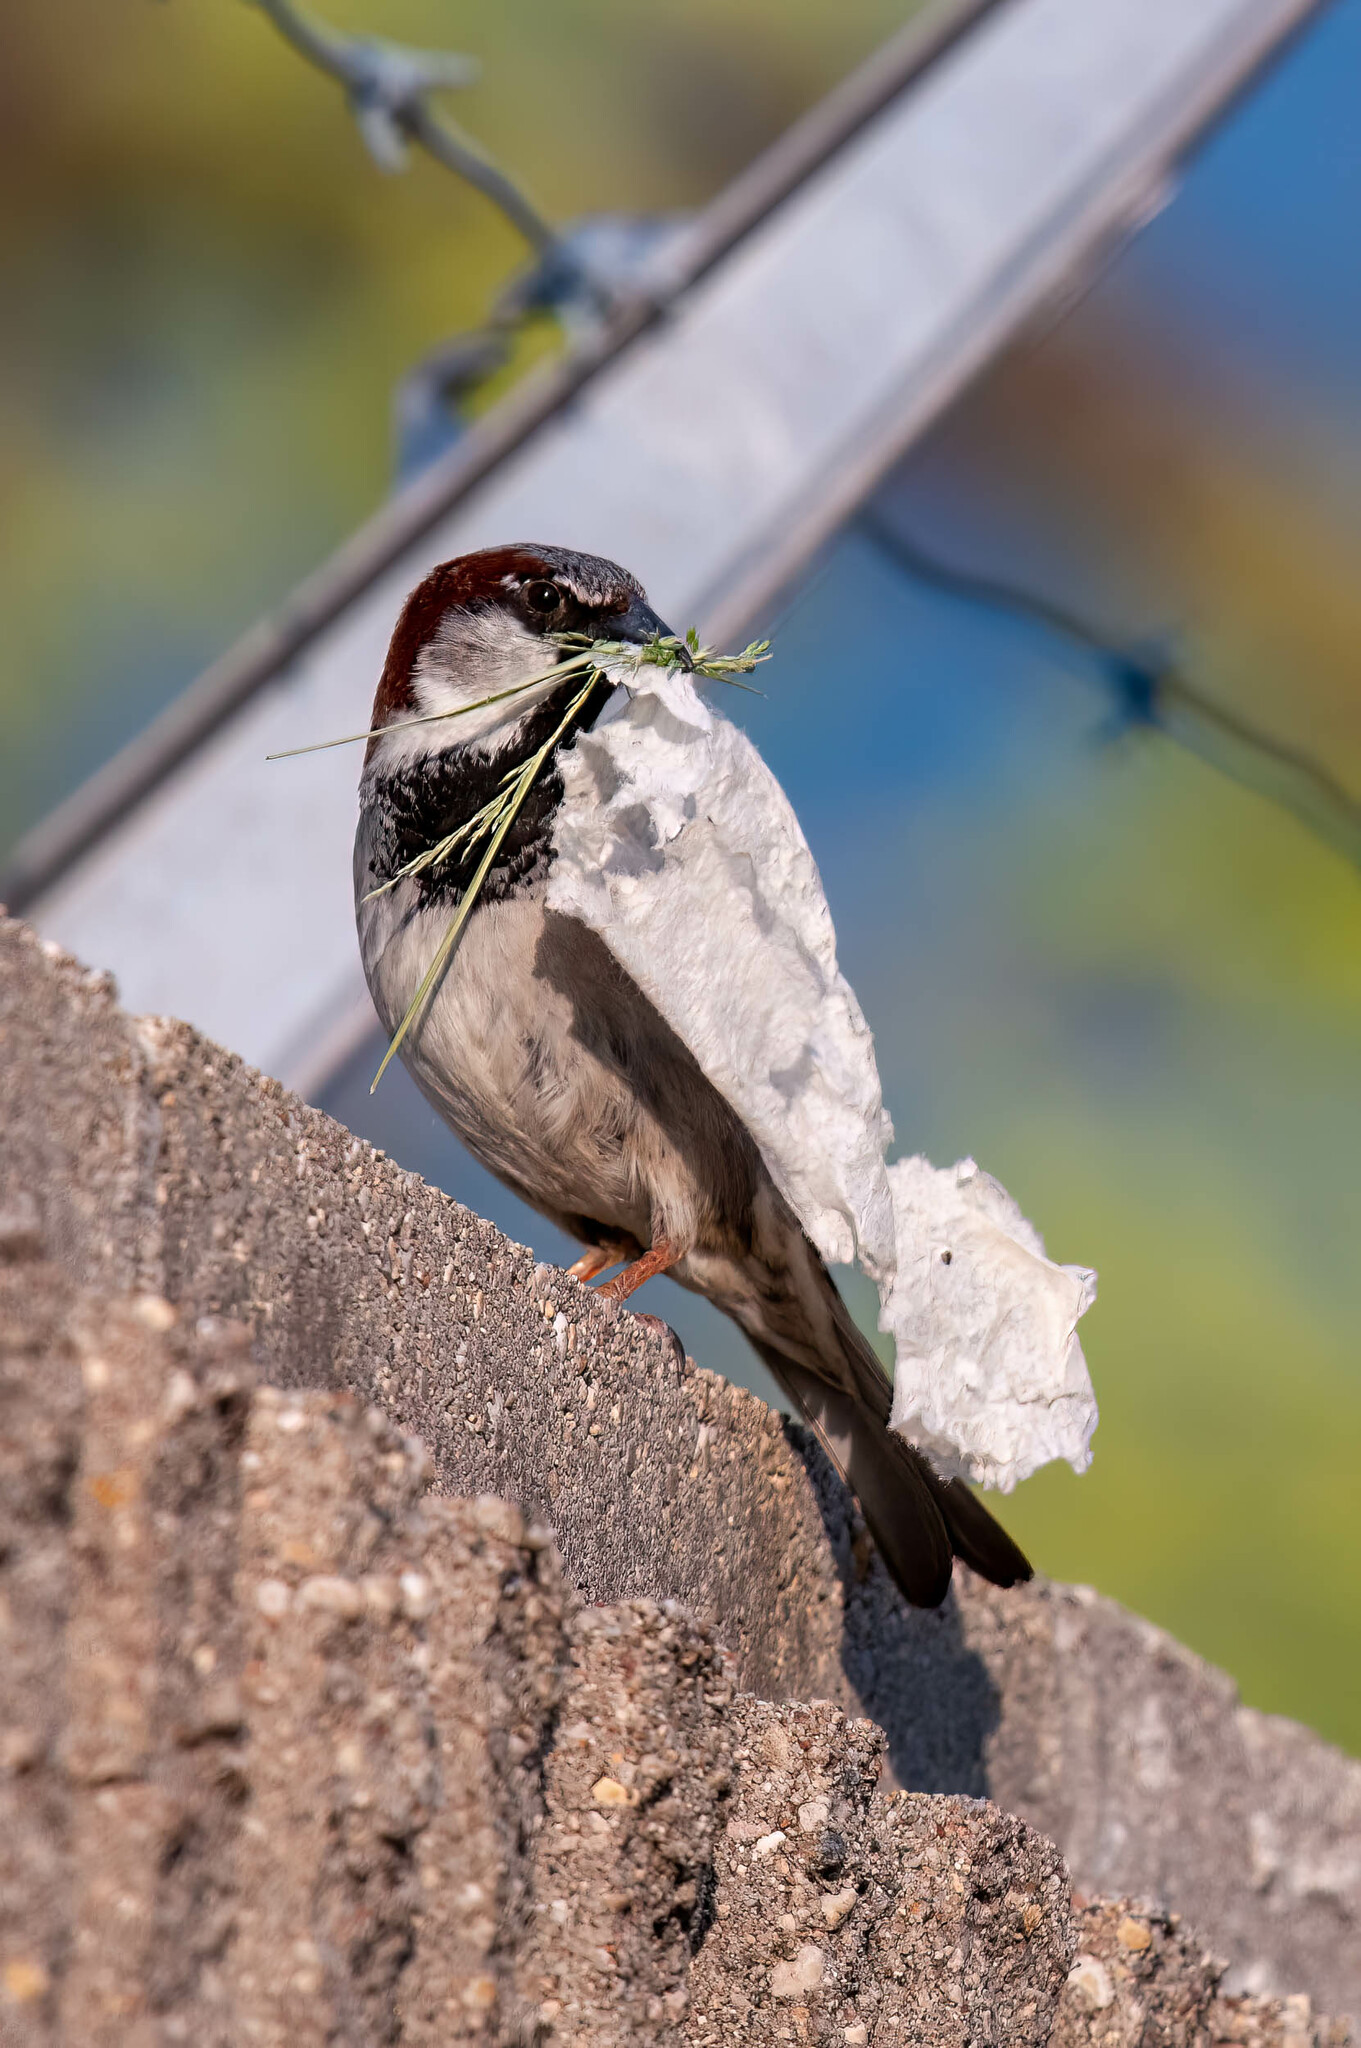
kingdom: Animalia
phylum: Chordata
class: Aves
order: Passeriformes
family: Passeridae
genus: Passer
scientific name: Passer domesticus
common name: House sparrow
